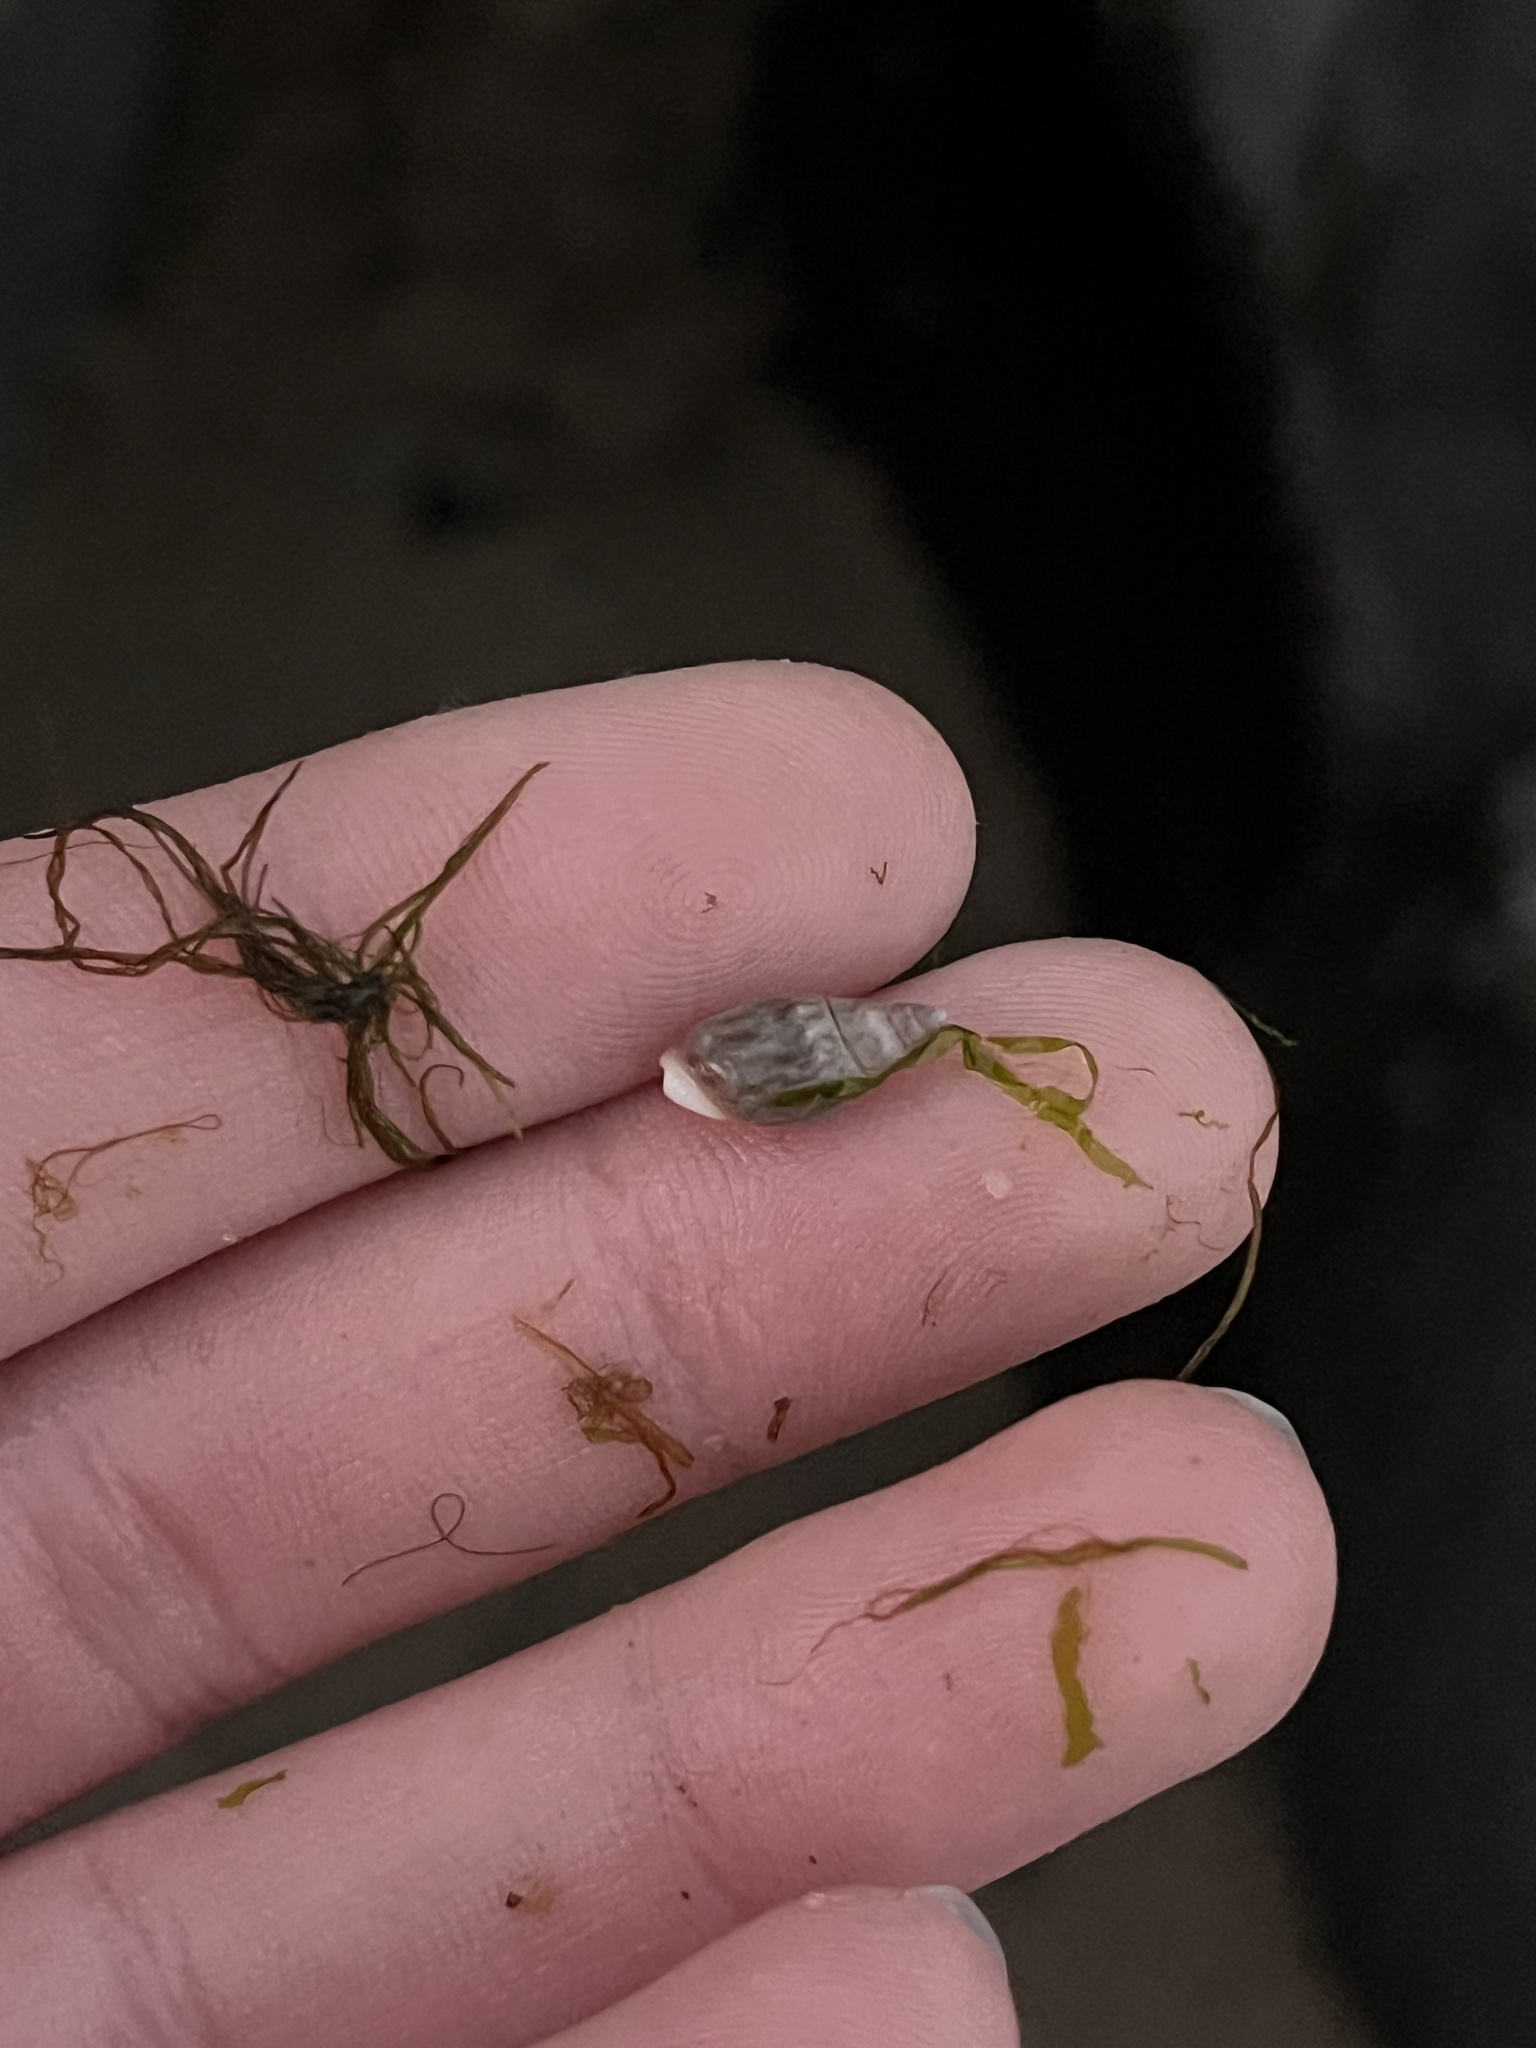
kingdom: Animalia
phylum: Mollusca
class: Gastropoda
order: Neogastropoda
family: Olividae
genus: Callianax
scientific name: Callianax alectona
